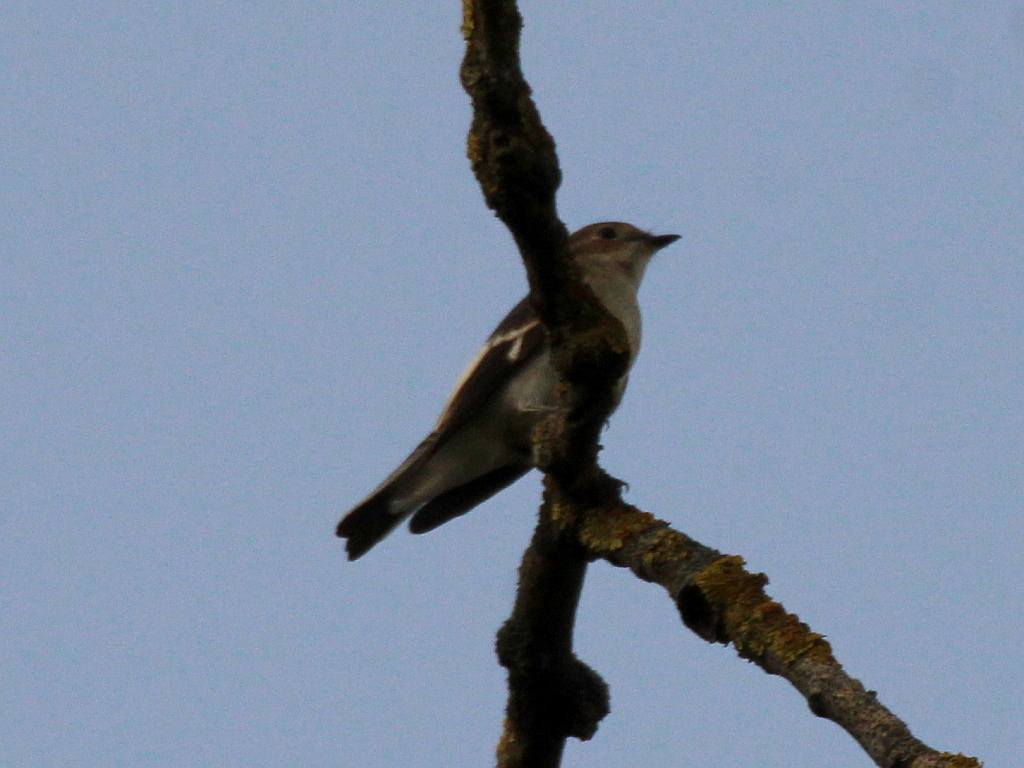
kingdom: Animalia
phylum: Chordata
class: Aves
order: Passeriformes
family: Muscicapidae
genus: Ficedula
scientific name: Ficedula albicollis
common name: Collared flycatcher
